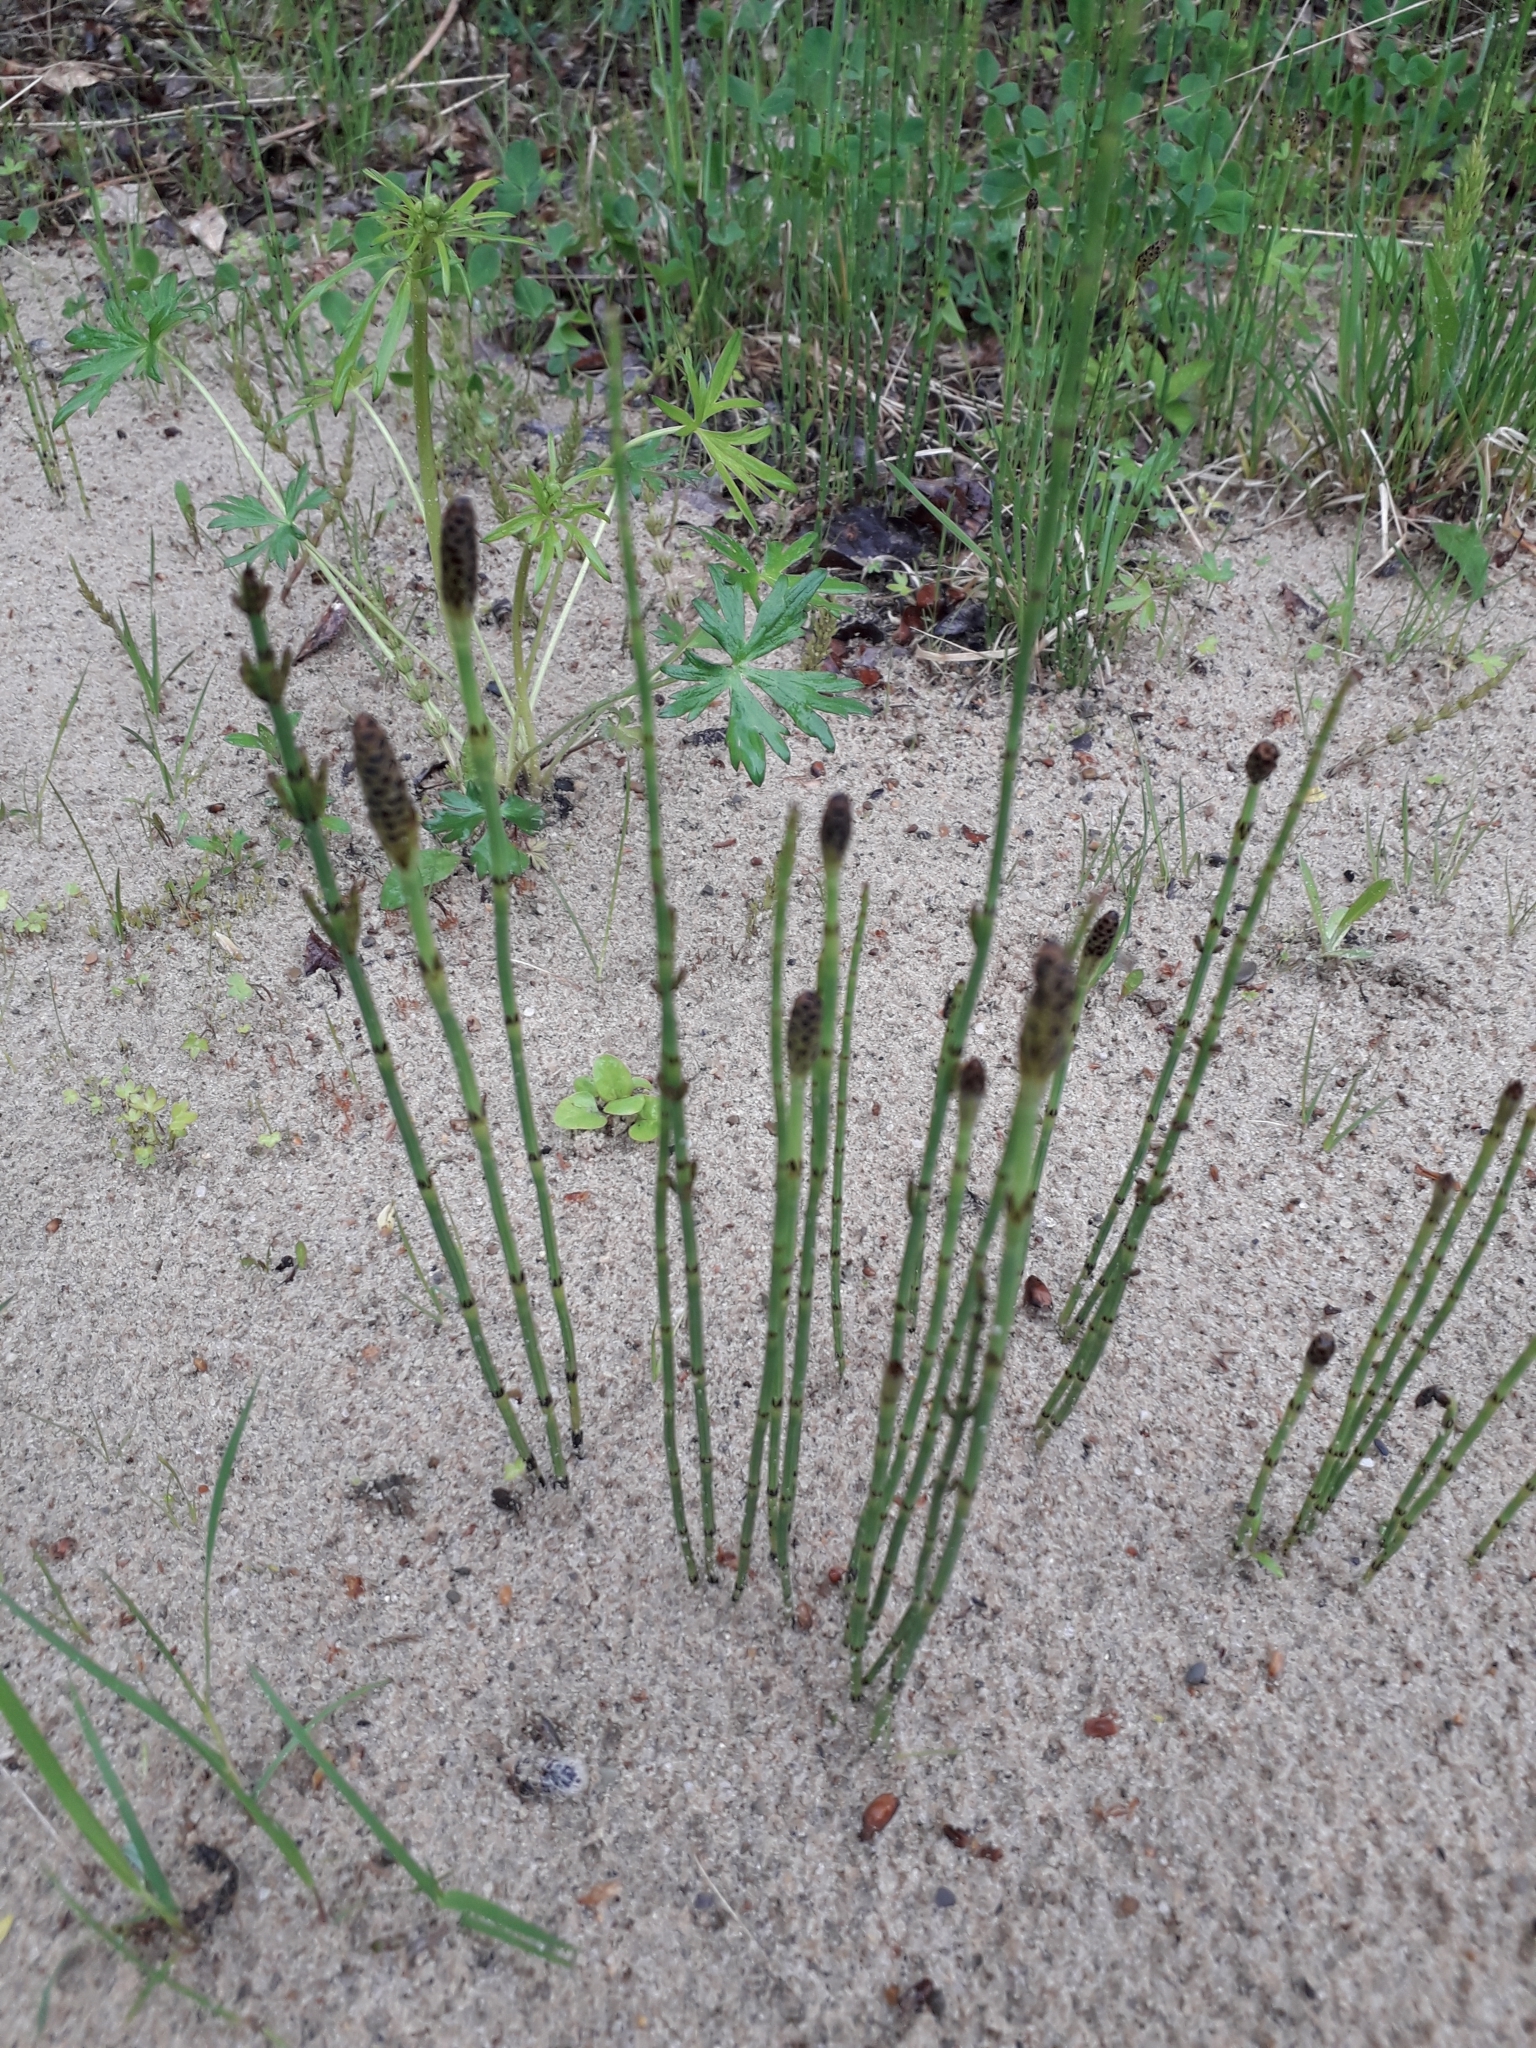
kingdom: Plantae
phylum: Tracheophyta
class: Polypodiopsida
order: Equisetales
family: Equisetaceae
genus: Equisetum
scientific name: Equisetum palustre
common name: Marsh horsetail
